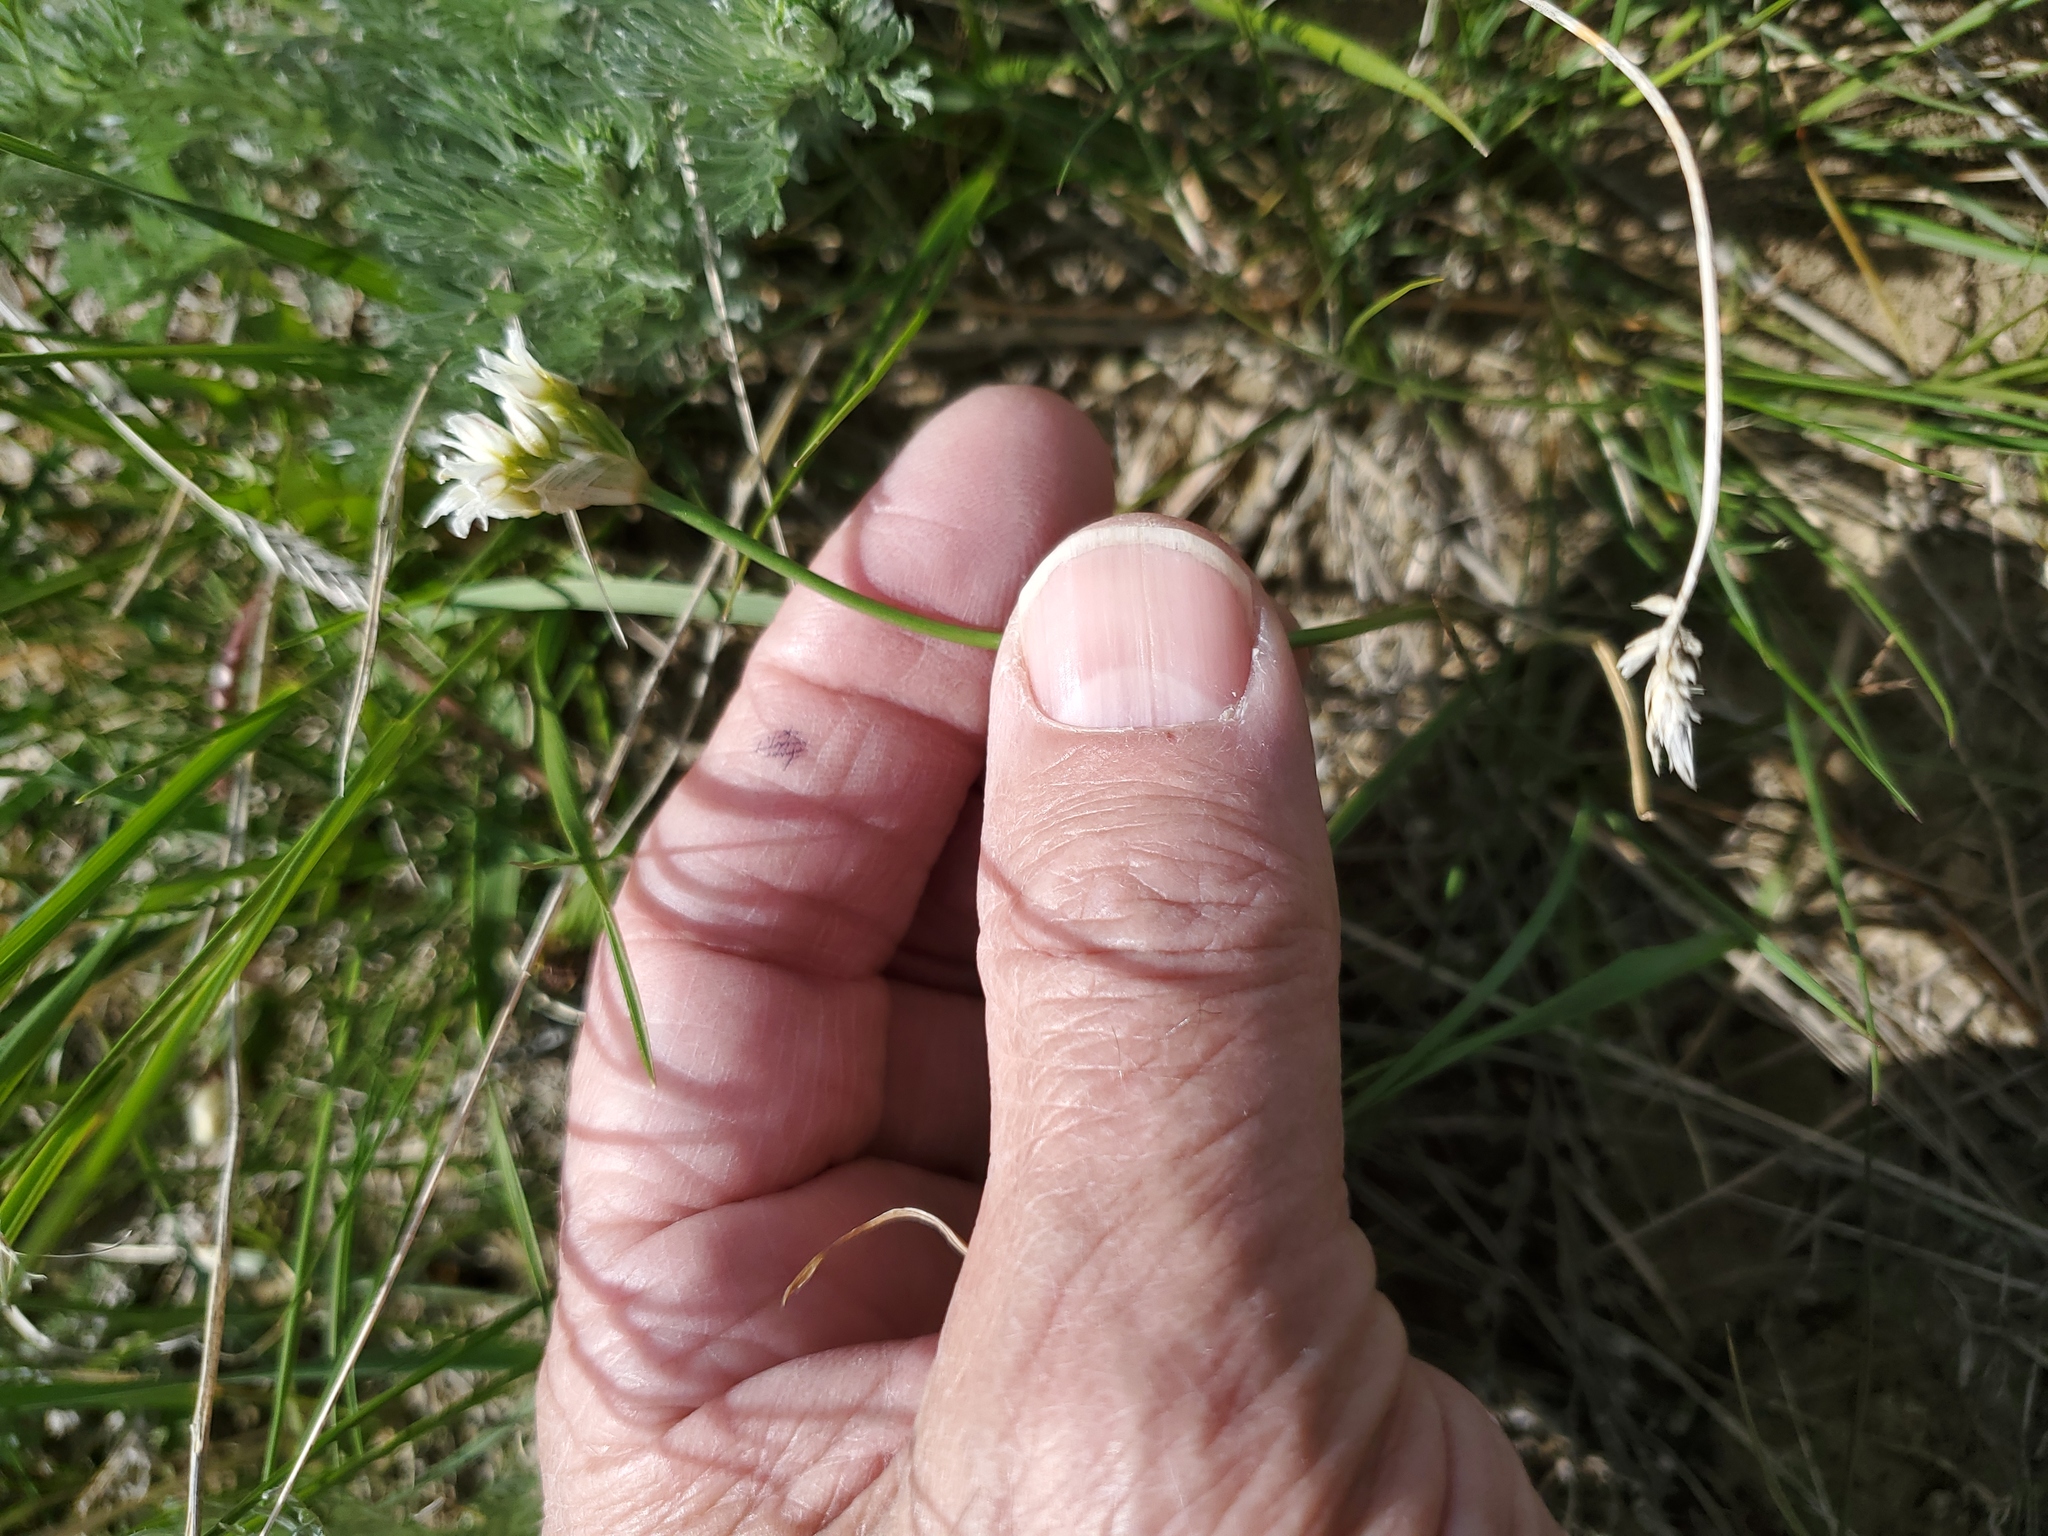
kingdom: Plantae
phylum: Tracheophyta
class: Liliopsida
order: Asparagales
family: Amaryllidaceae
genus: Allium
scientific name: Allium textile
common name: Prairie onion
